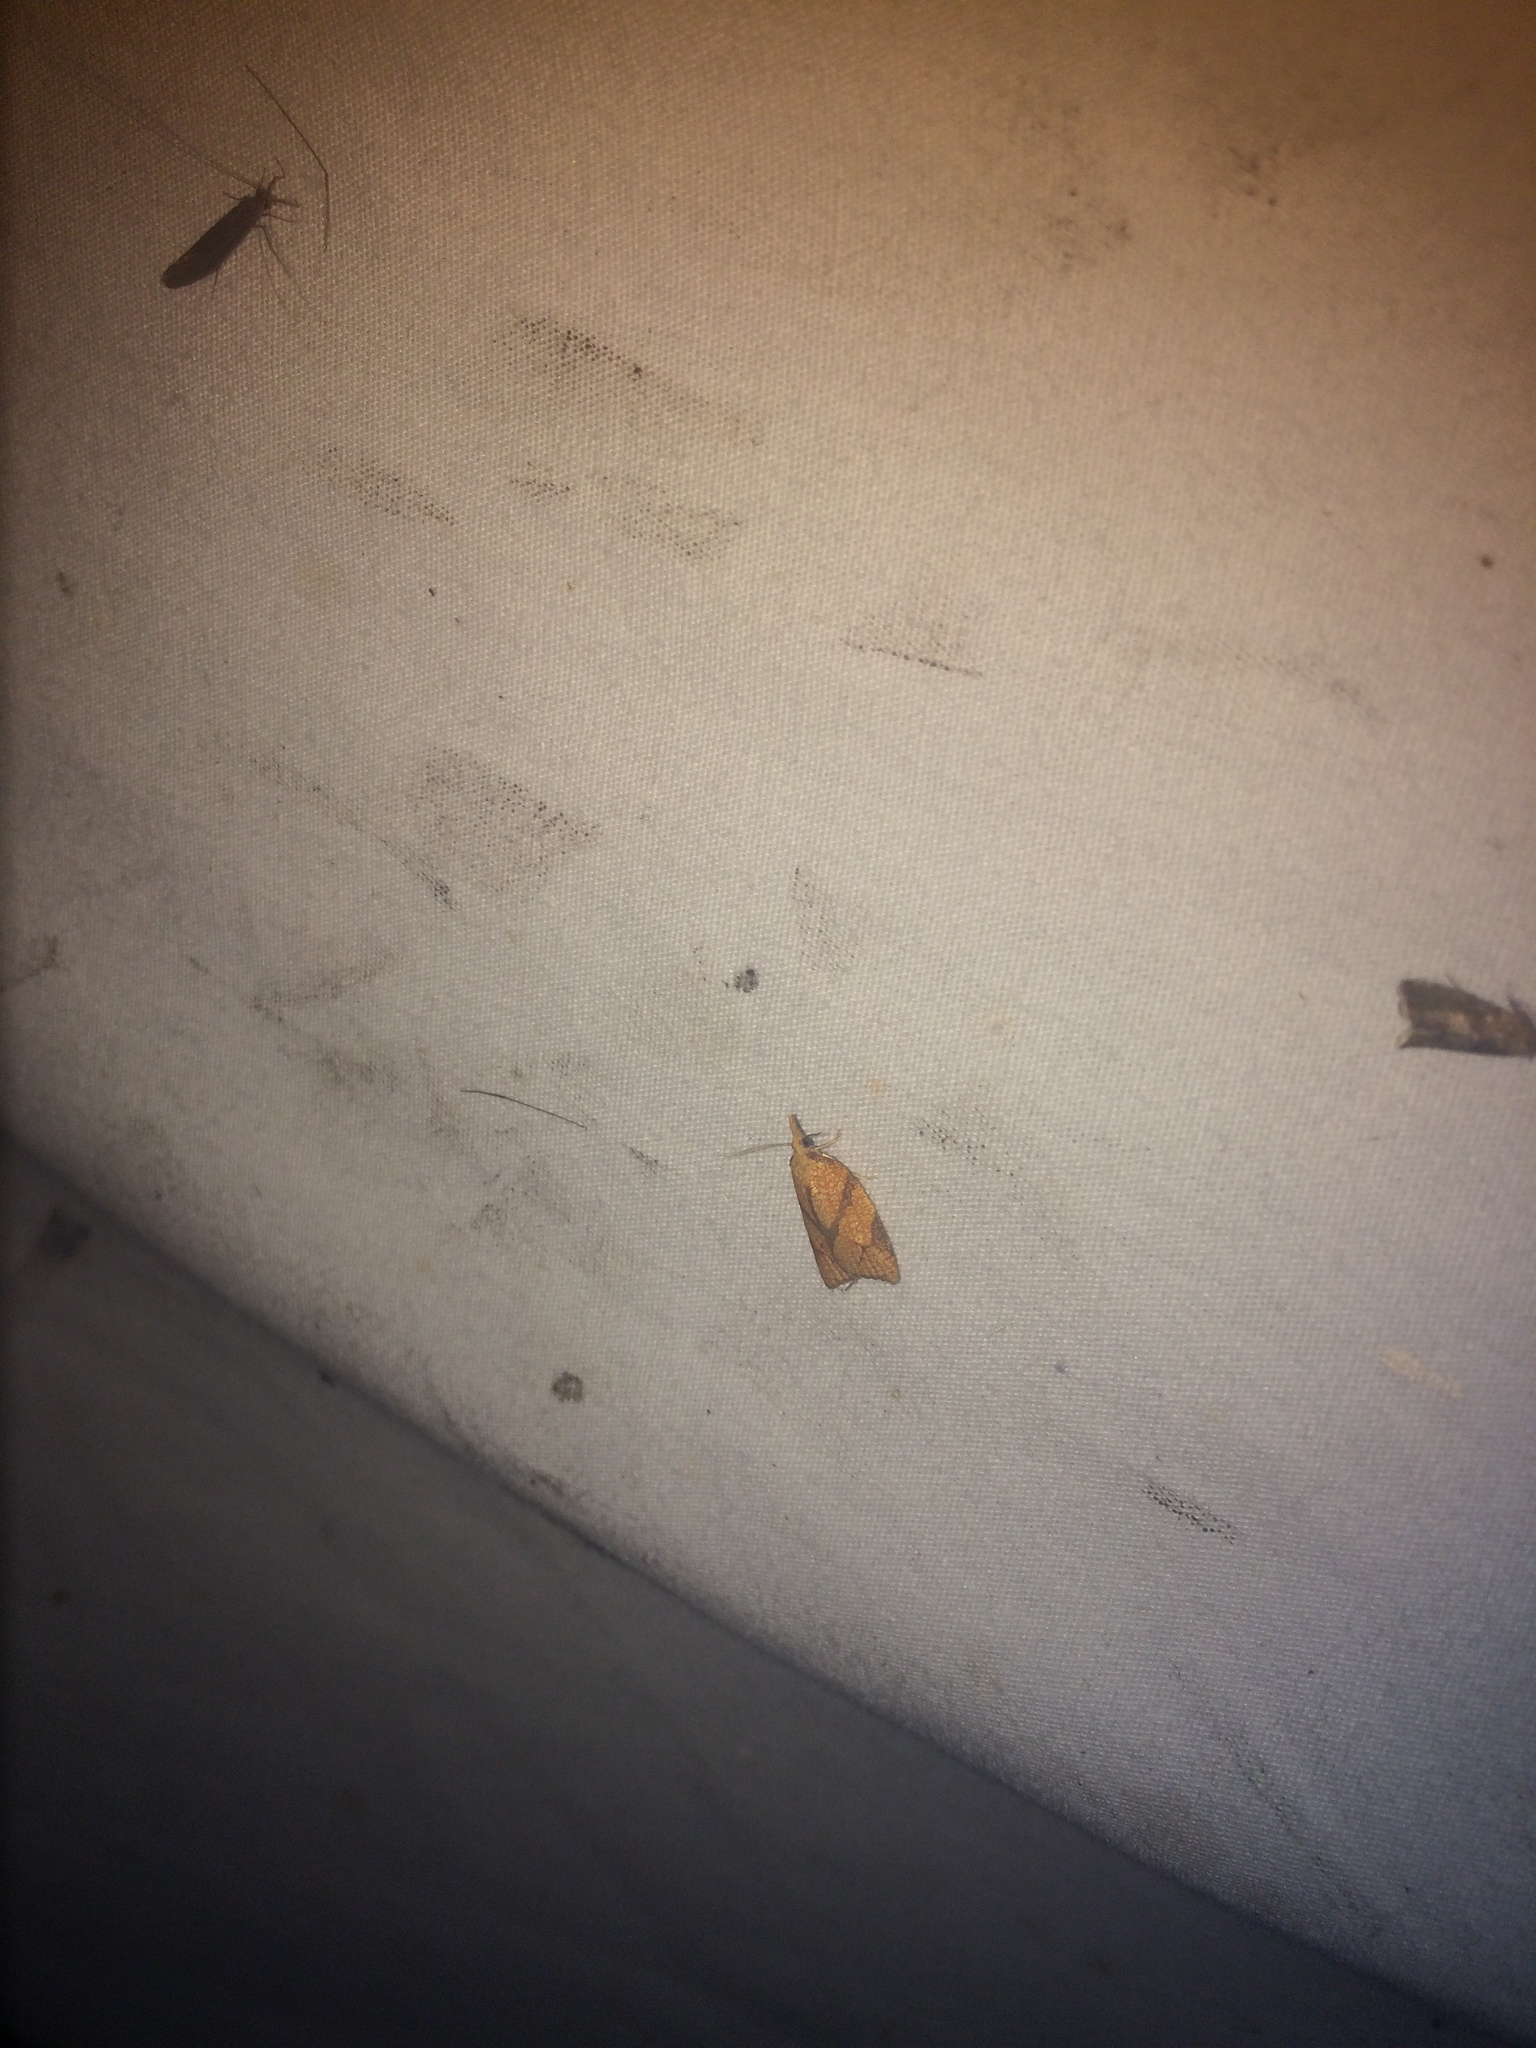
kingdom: Animalia
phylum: Arthropoda
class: Insecta
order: Lepidoptera
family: Tortricidae
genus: Cenopis
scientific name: Cenopis reticulatana
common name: Reticulated fruitworm moth
